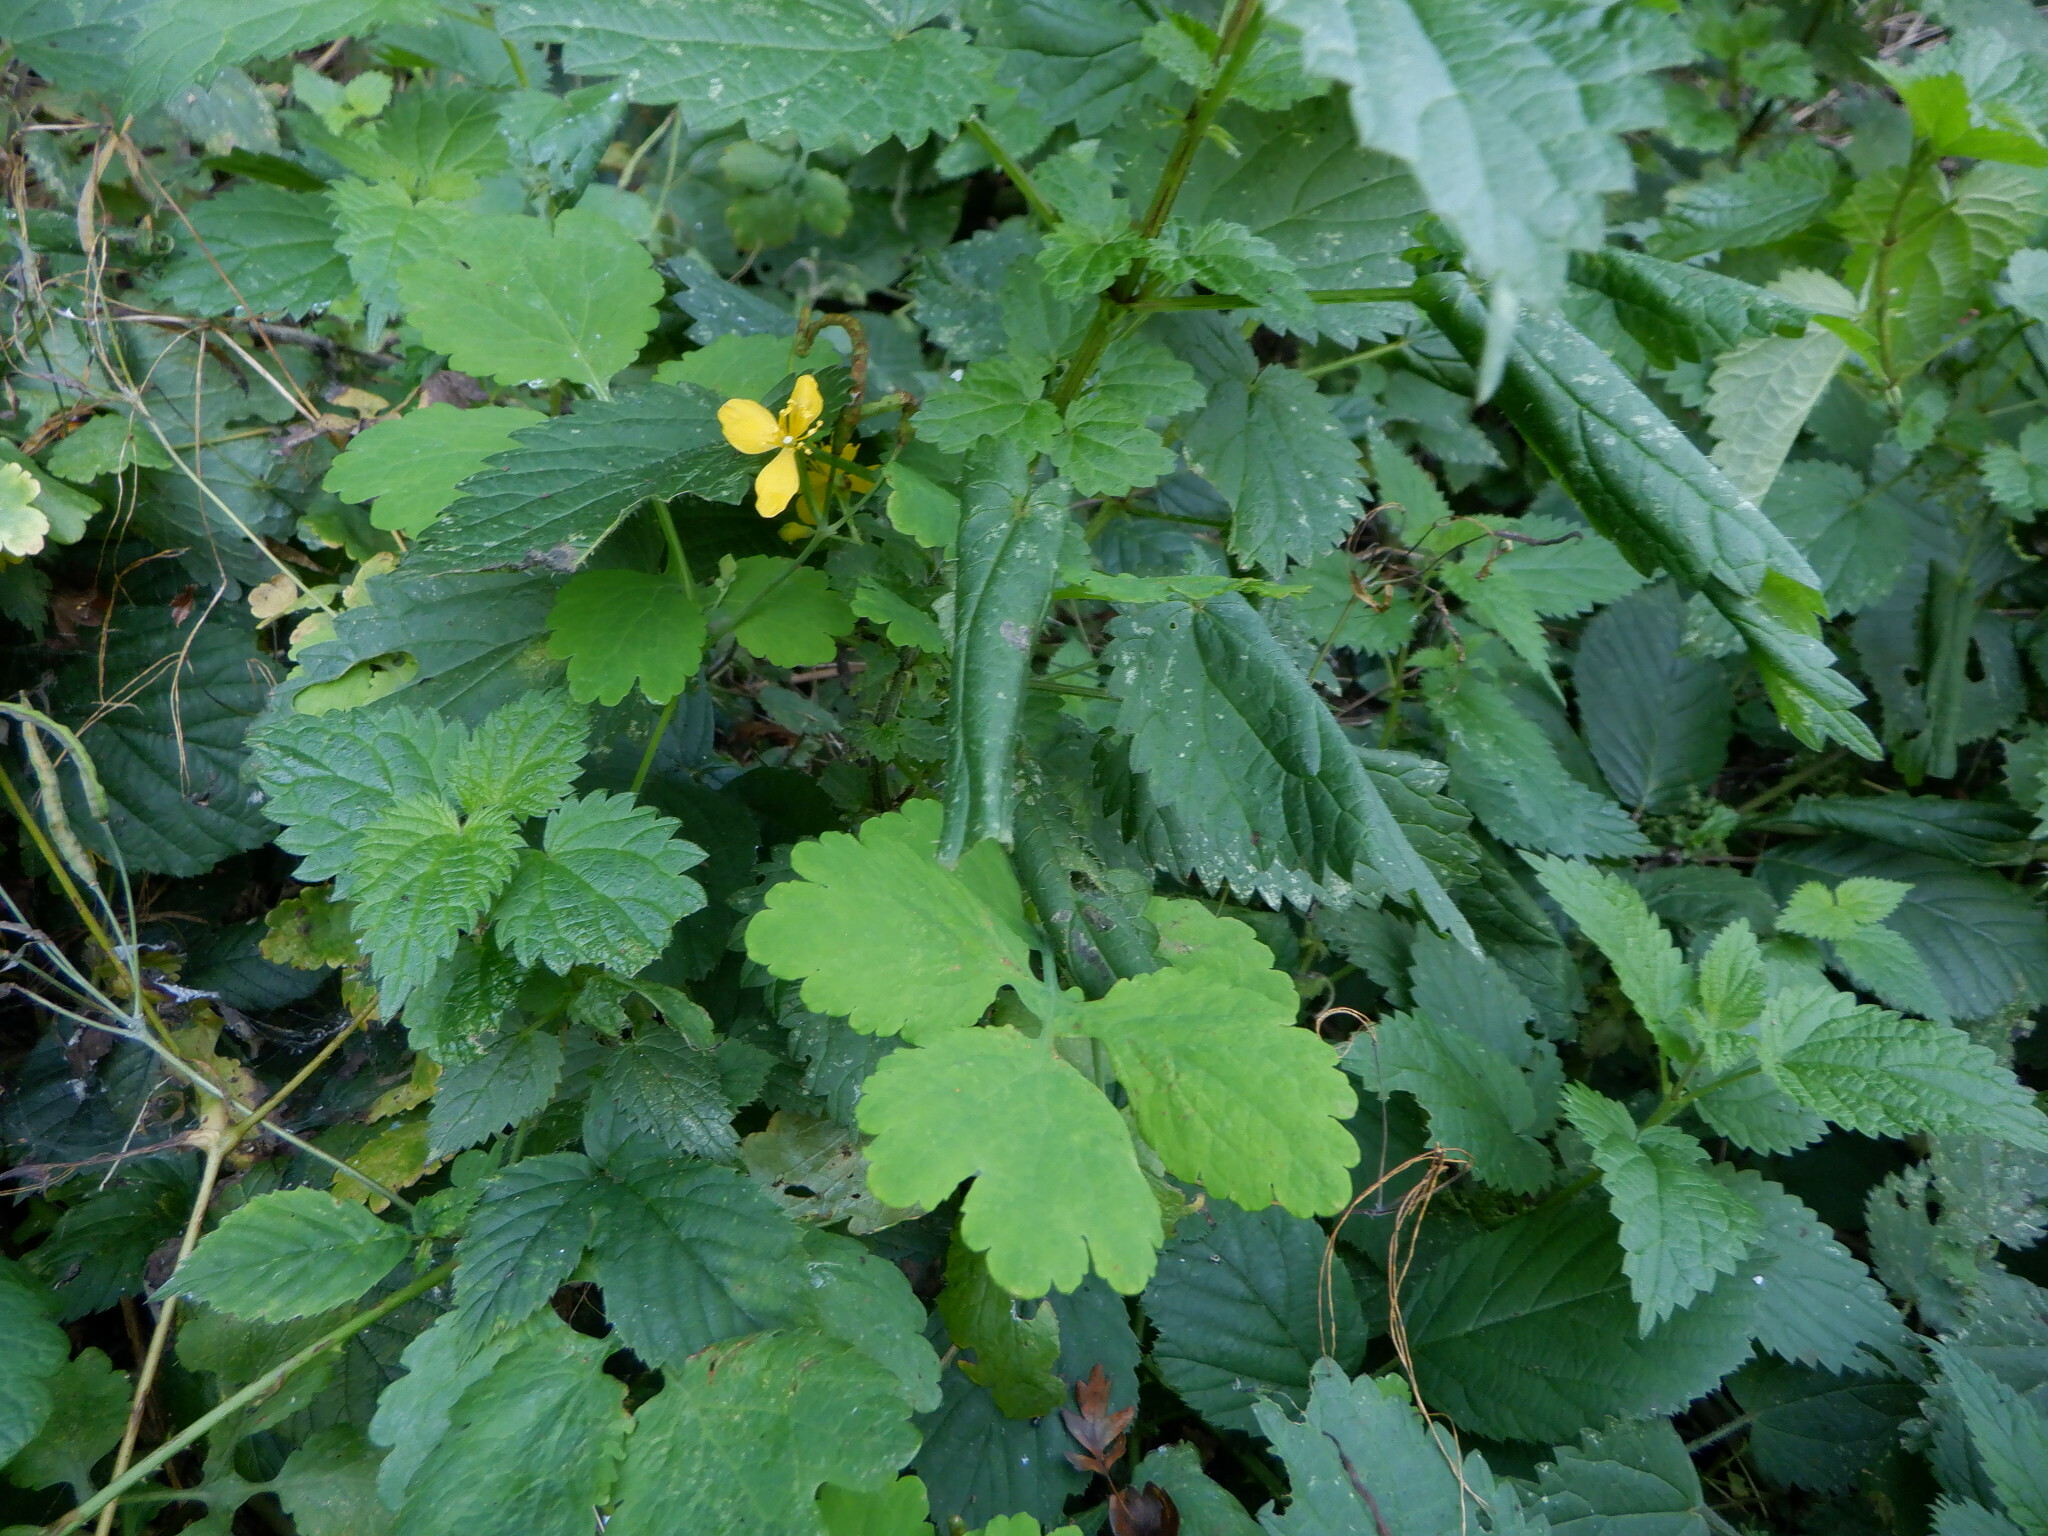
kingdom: Plantae
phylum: Tracheophyta
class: Magnoliopsida
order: Ranunculales
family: Papaveraceae
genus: Chelidonium
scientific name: Chelidonium majus
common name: Greater celandine
